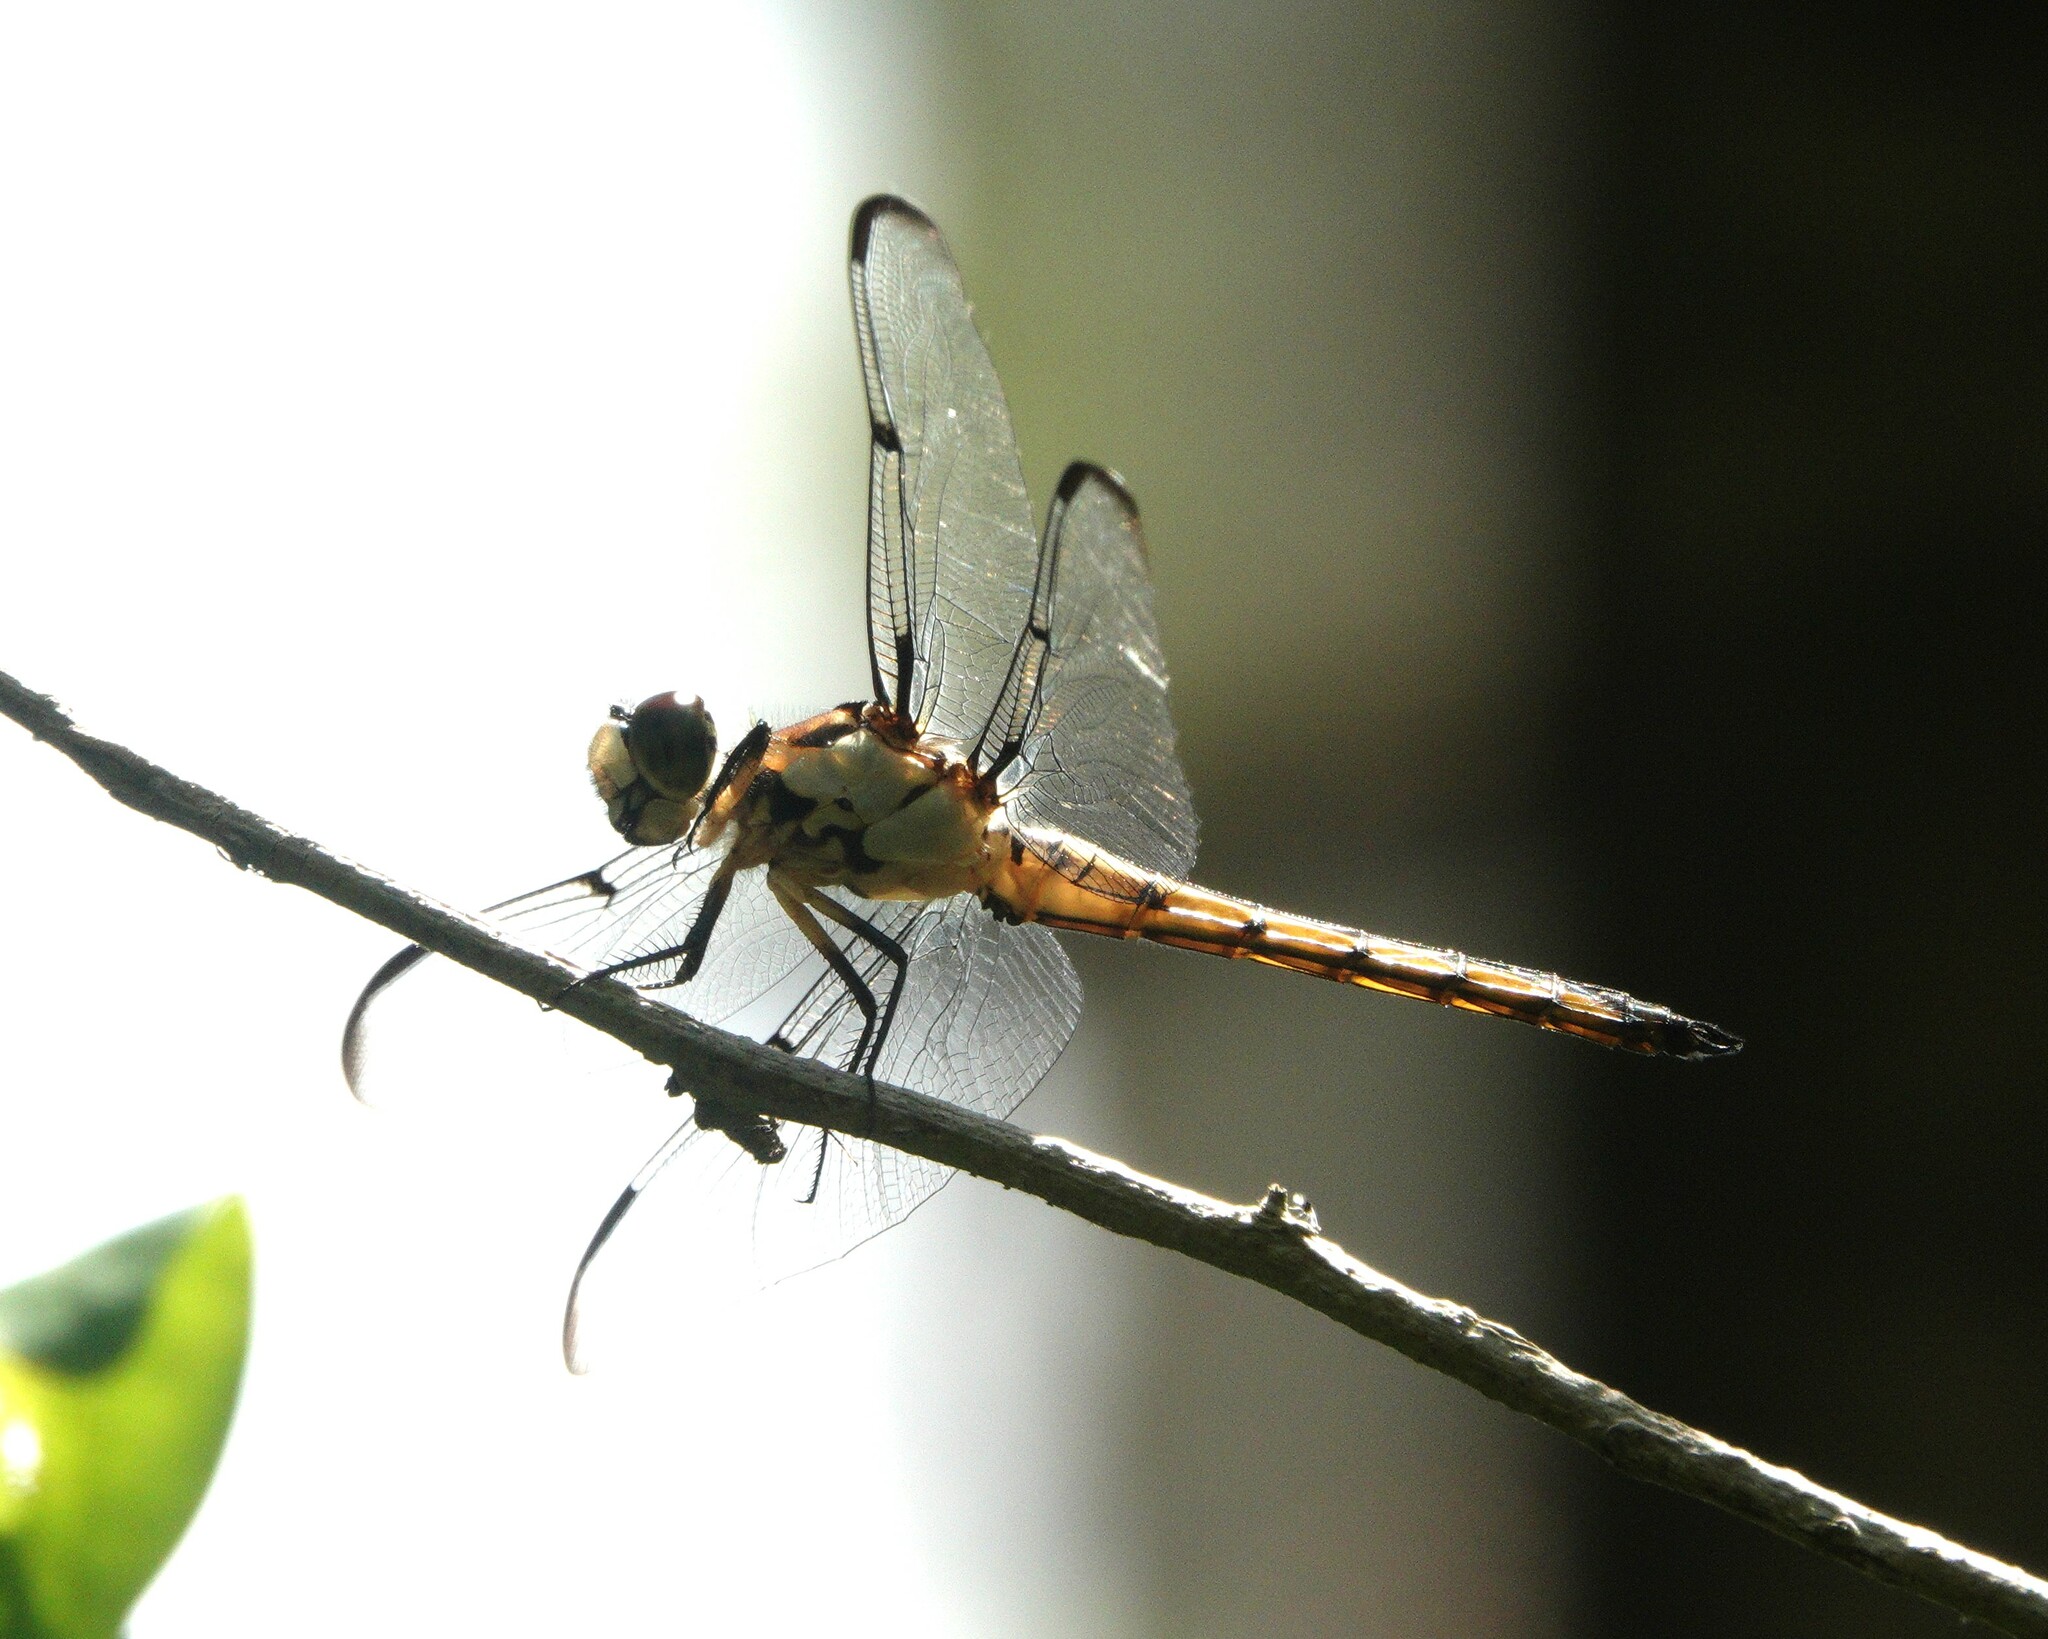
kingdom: Animalia
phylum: Arthropoda
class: Insecta
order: Odonata
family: Libellulidae
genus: Libellula
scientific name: Libellula vibrans
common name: Great blue skimmer
